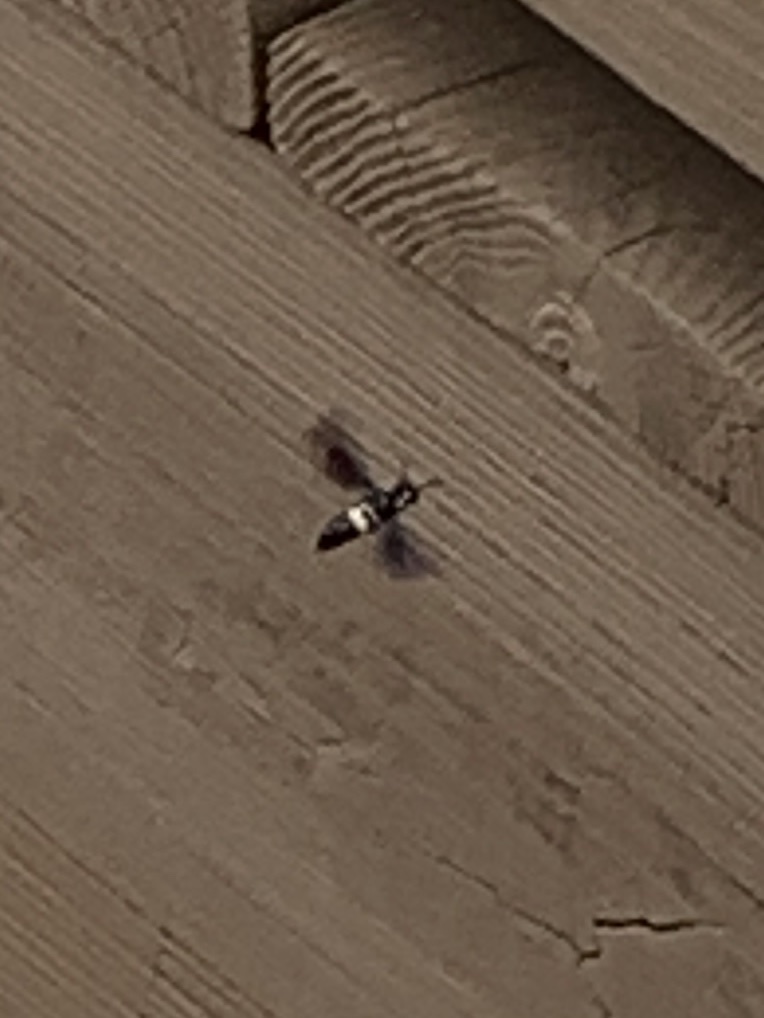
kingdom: Animalia
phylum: Arthropoda
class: Insecta
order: Hymenoptera
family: Eumenidae
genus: Monobia
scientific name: Monobia quadridens
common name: Four-toothed mason wasp
